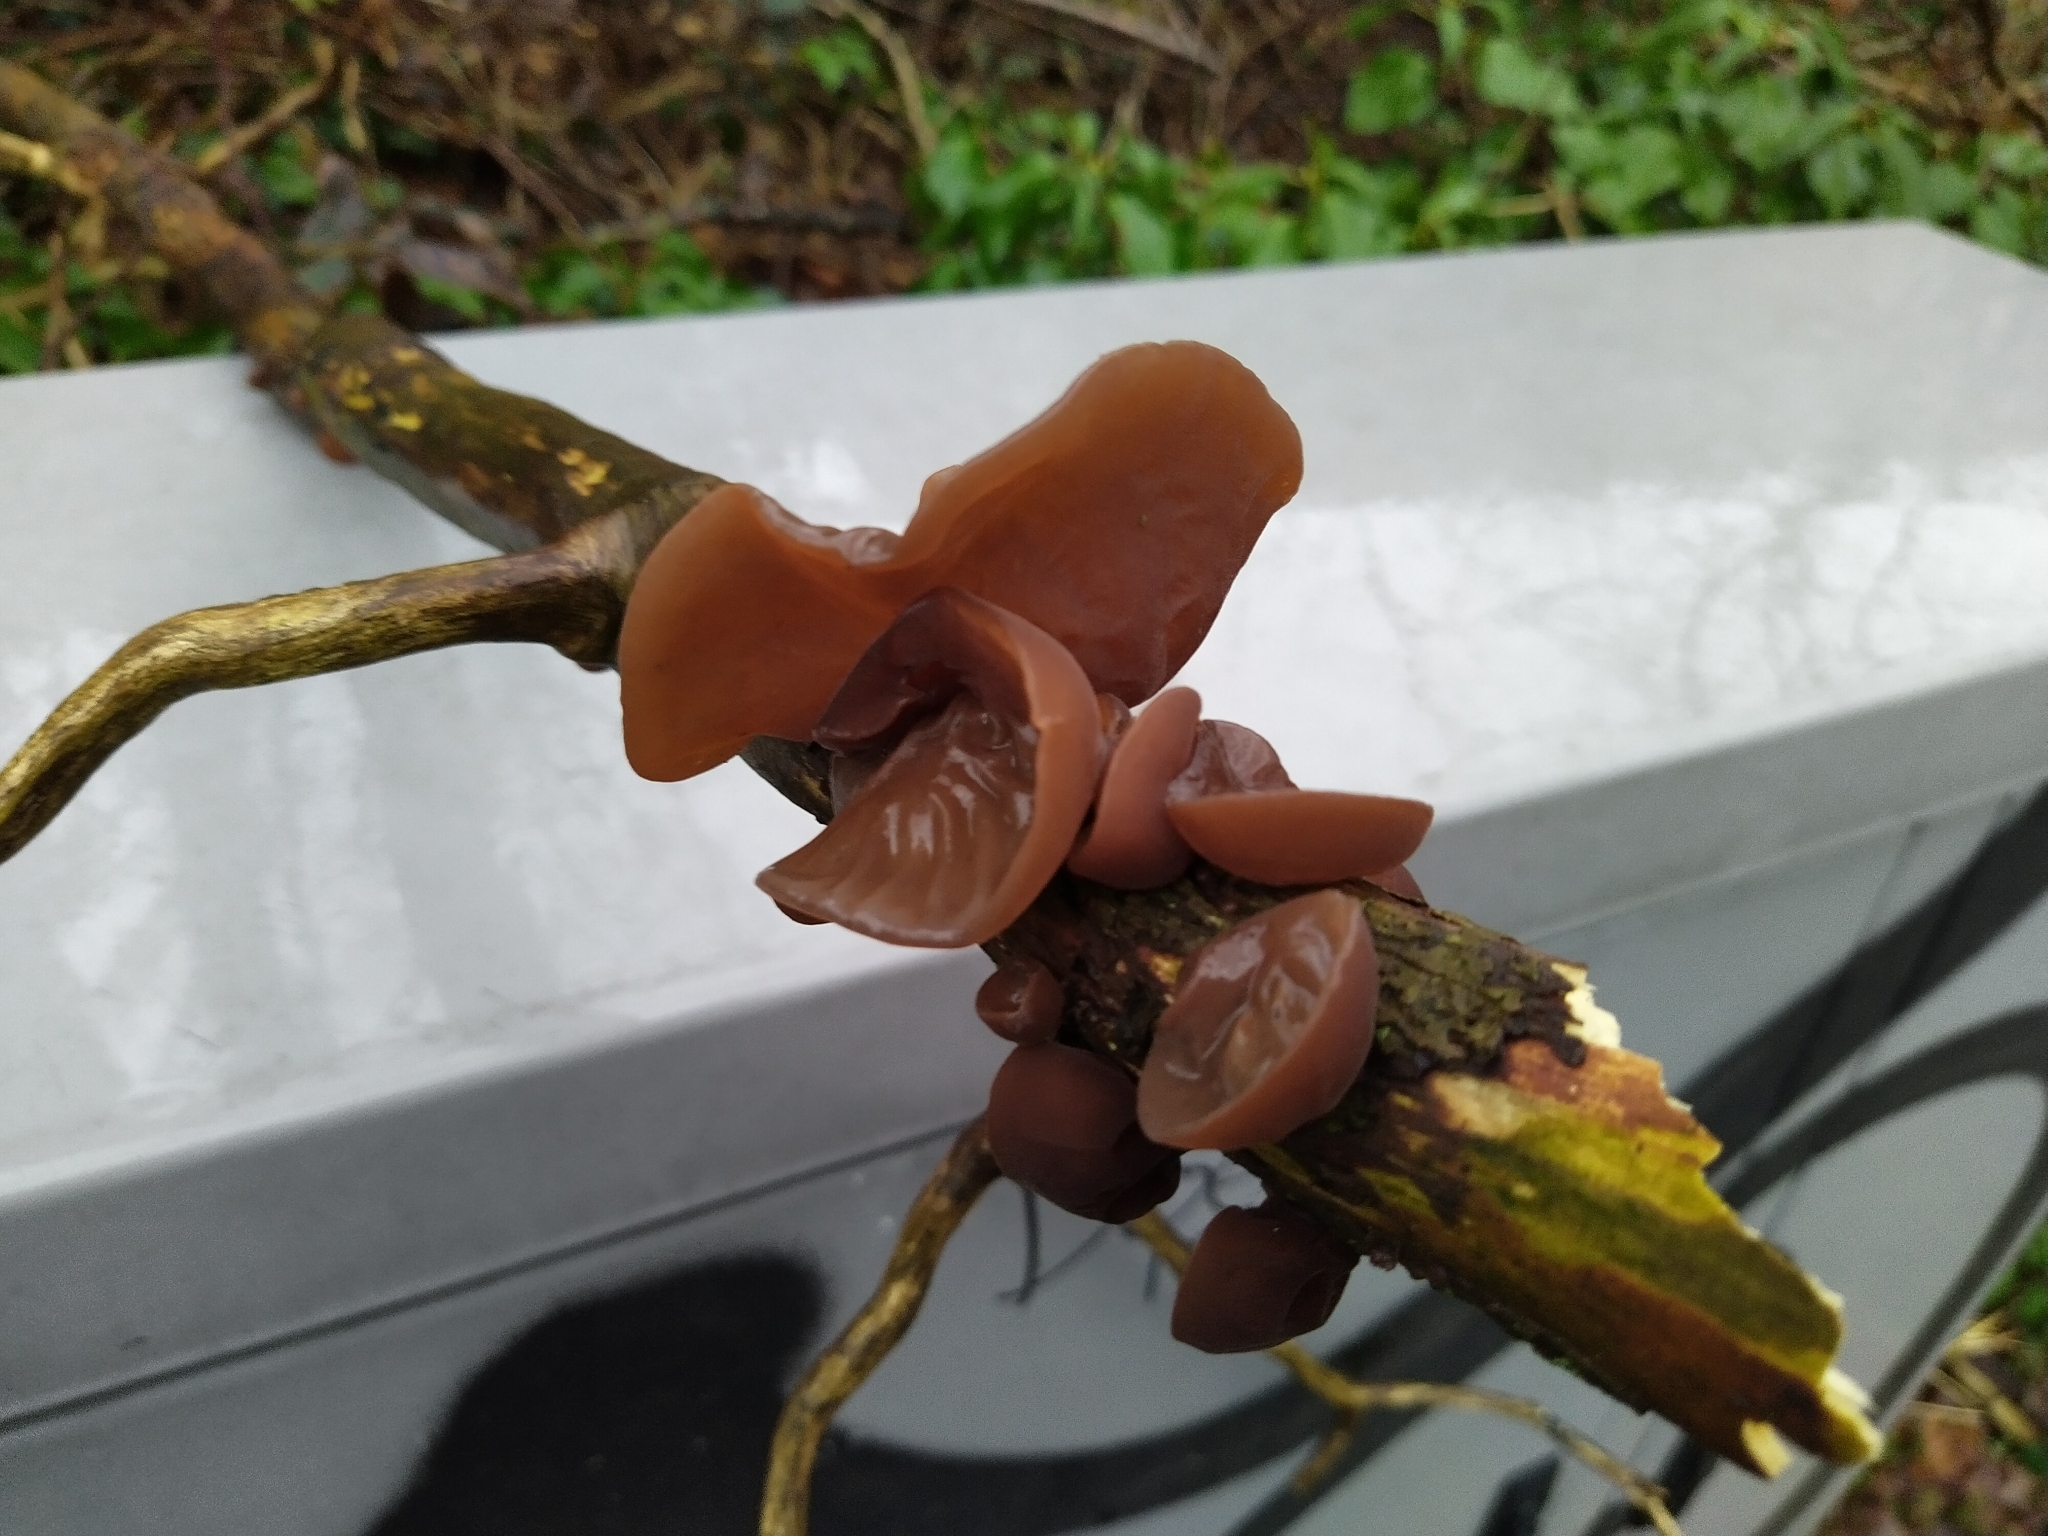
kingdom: Fungi
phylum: Basidiomycota
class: Agaricomycetes
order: Auriculariales
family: Auriculariaceae
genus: Auricularia
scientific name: Auricularia auricula-judae
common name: Jelly ear
